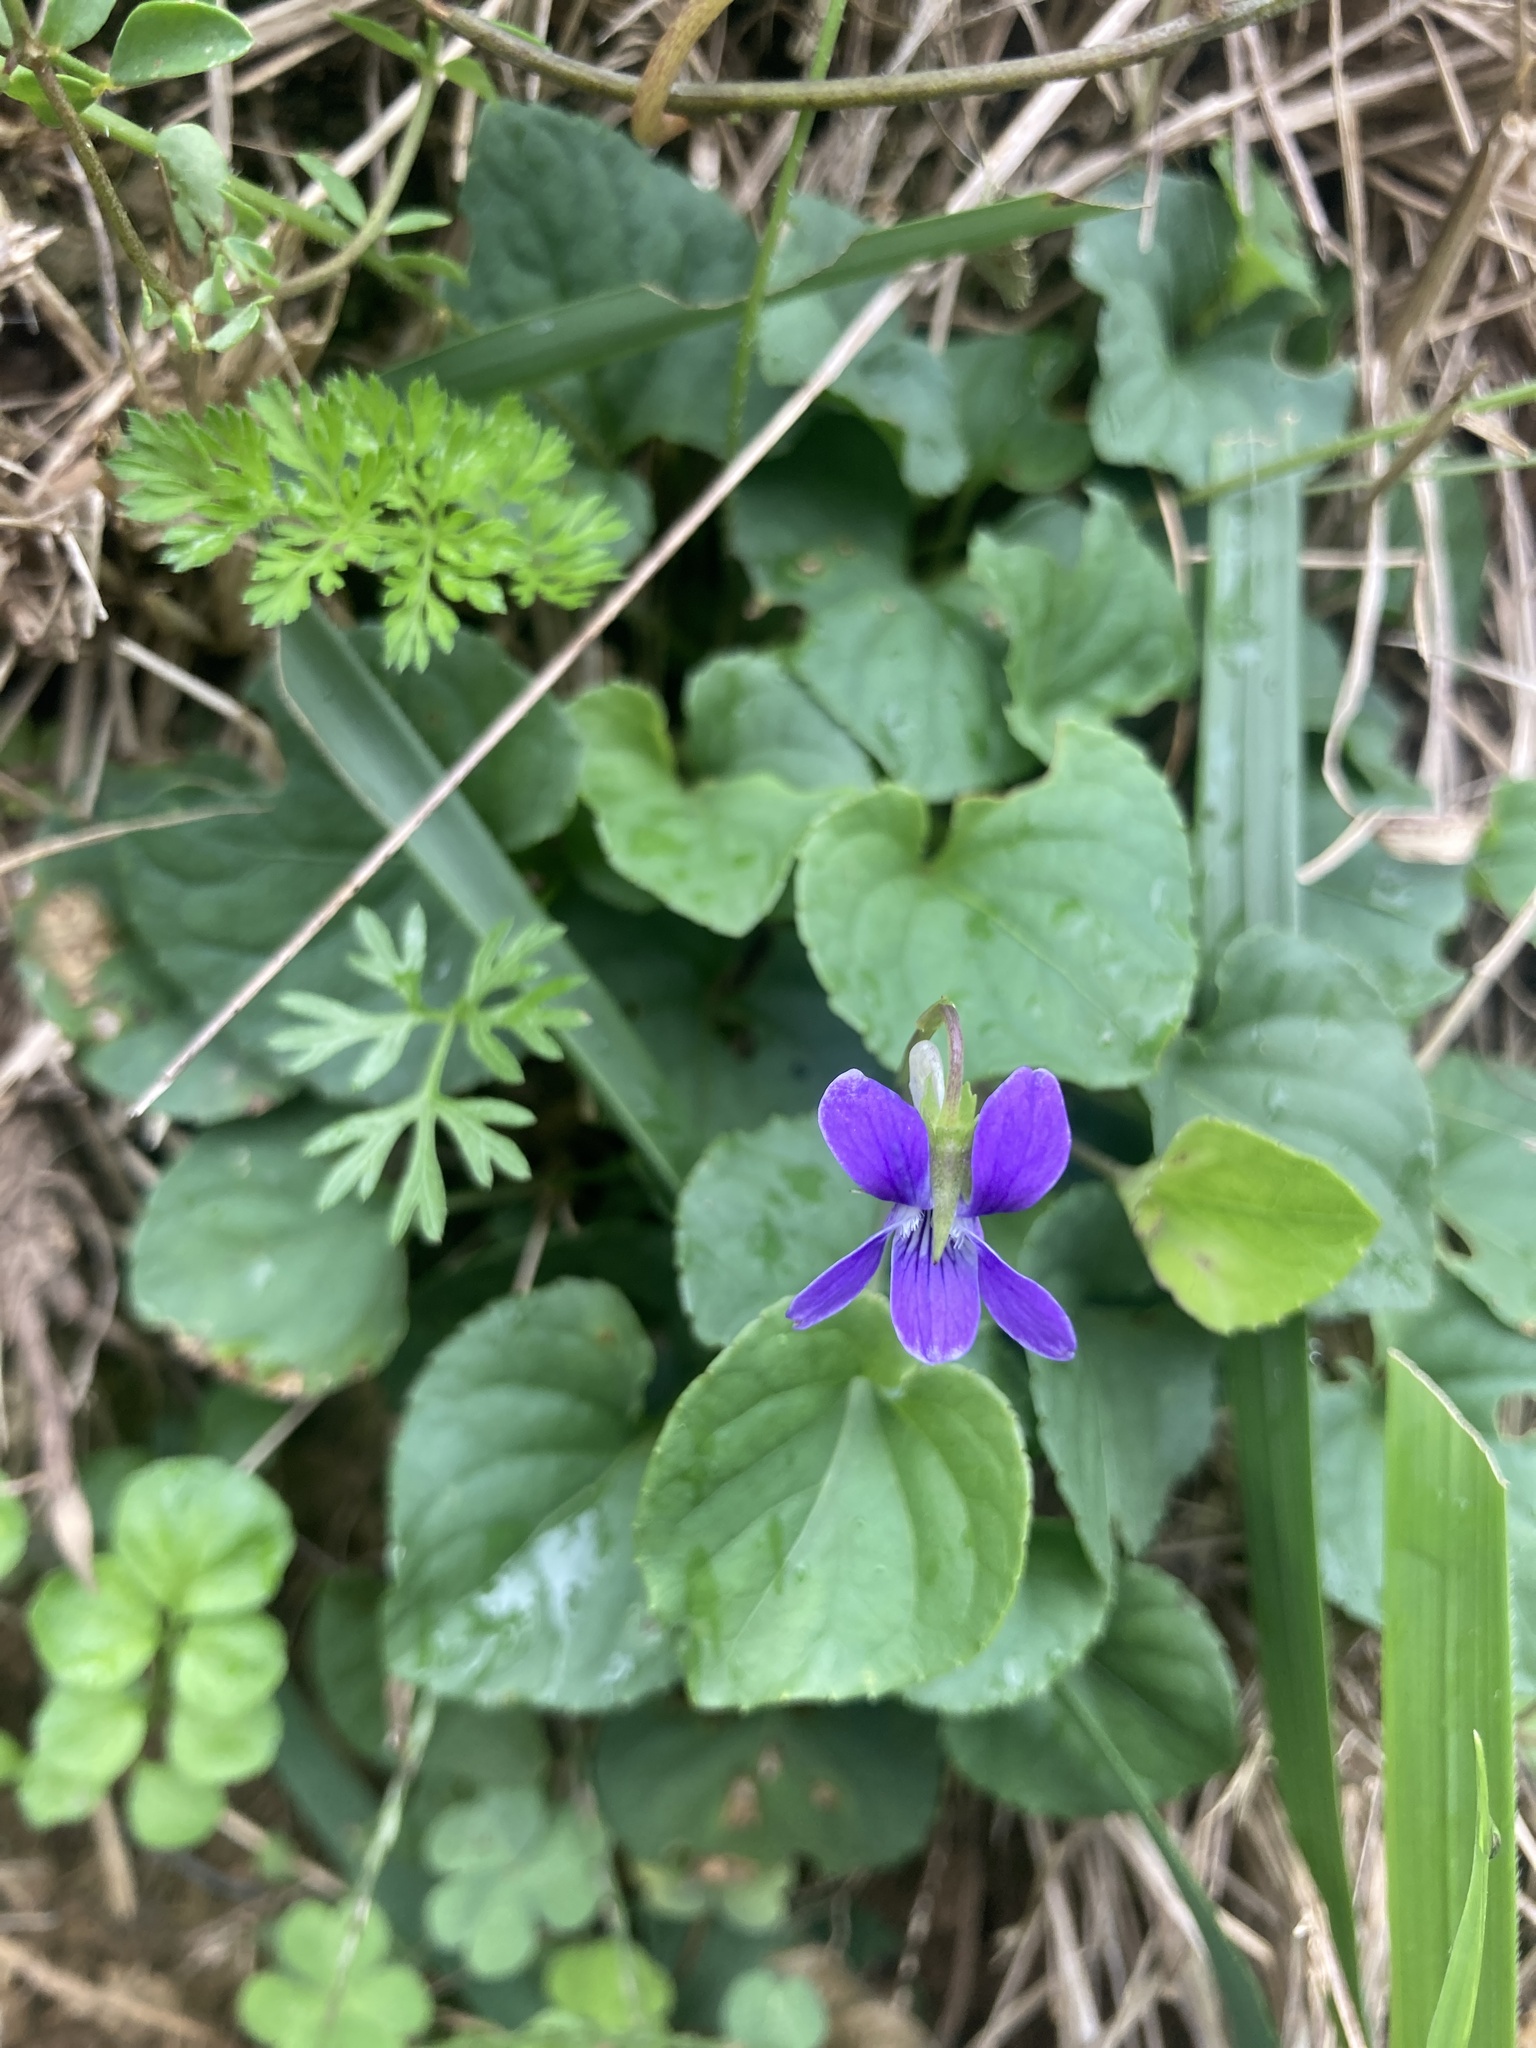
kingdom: Plantae
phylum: Tracheophyta
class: Magnoliopsida
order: Malpighiales
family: Violaceae
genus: Viola
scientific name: Viola riviniana
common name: Common dog-violet
